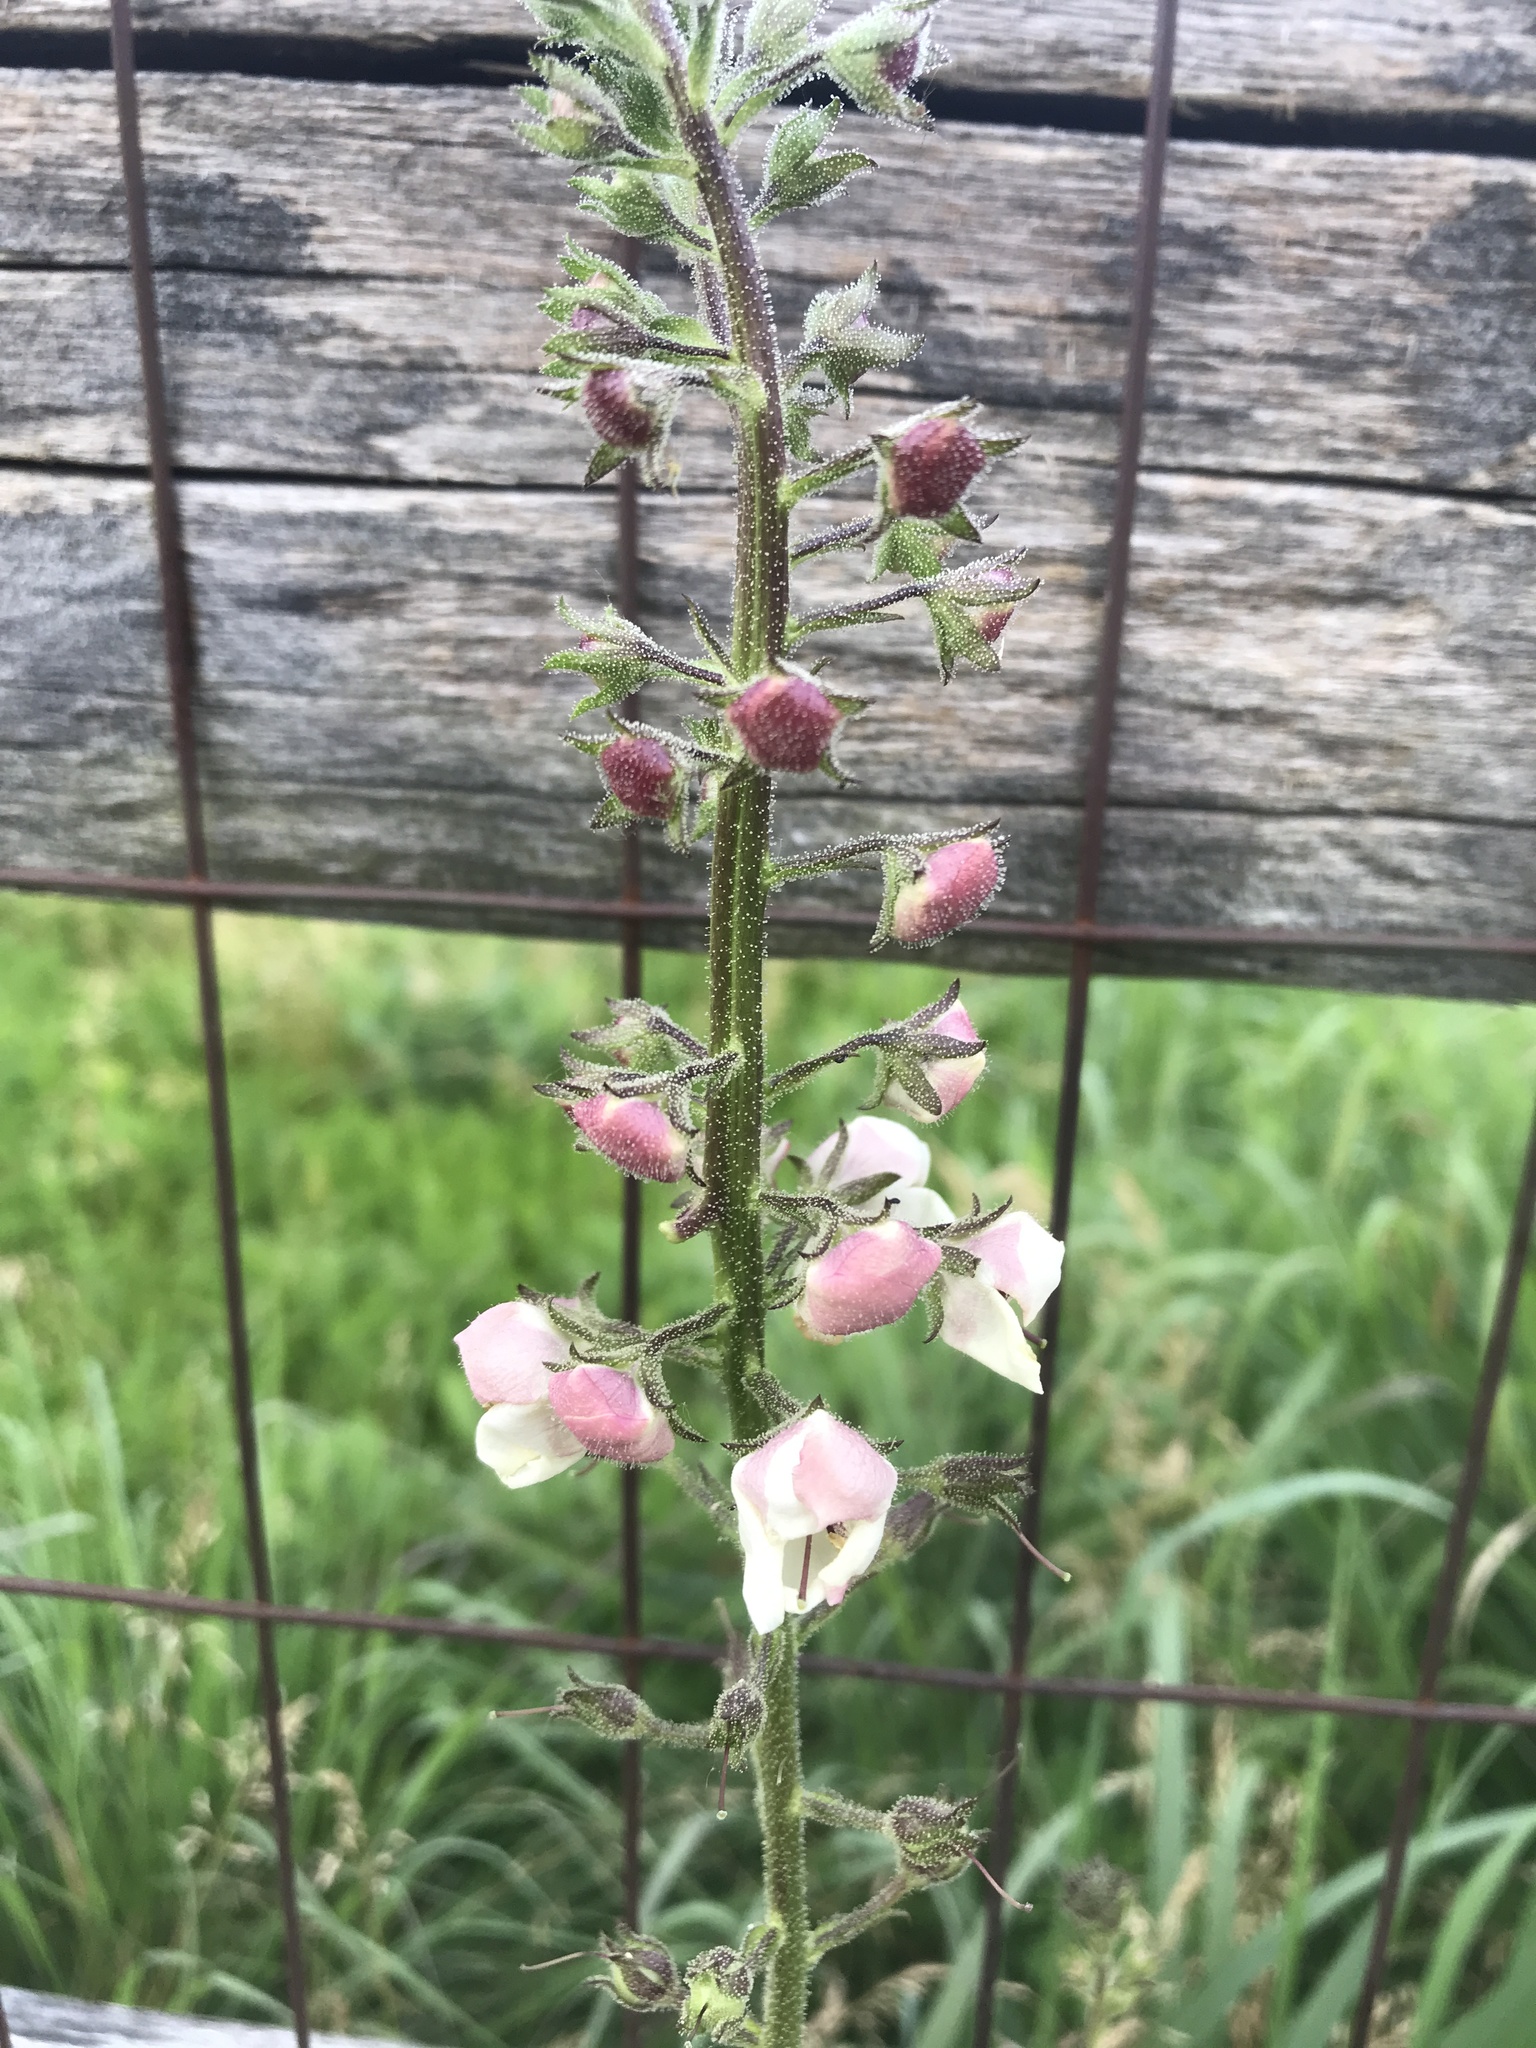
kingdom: Plantae
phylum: Tracheophyta
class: Magnoliopsida
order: Lamiales
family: Scrophulariaceae
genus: Verbascum
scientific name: Verbascum blattaria
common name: Moth mullein
